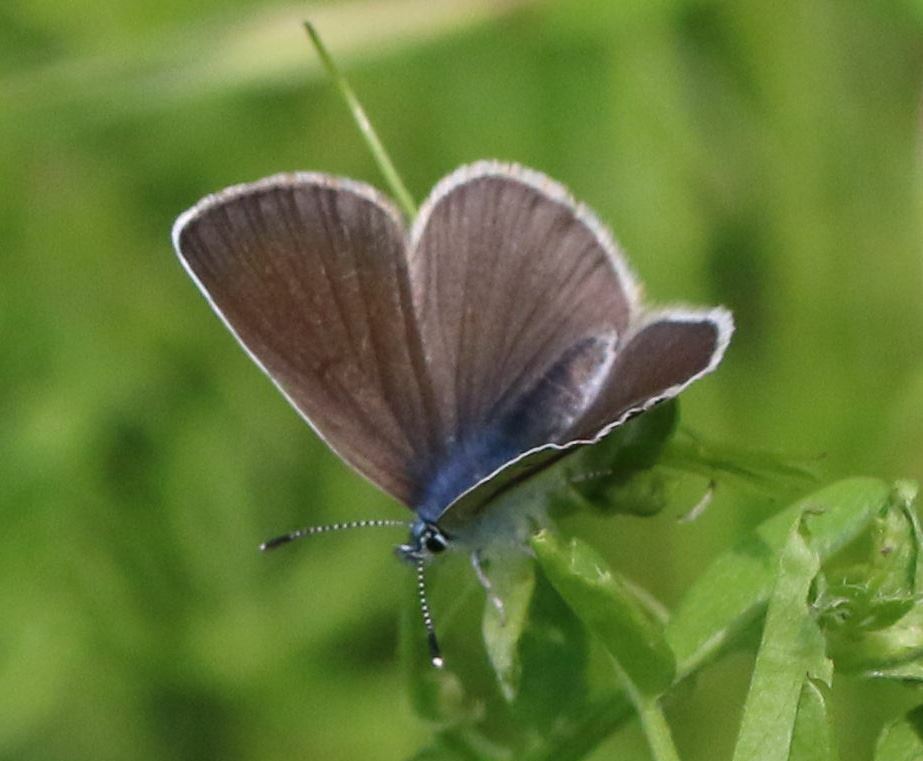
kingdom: Animalia
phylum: Arthropoda
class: Insecta
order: Lepidoptera
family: Lycaenidae
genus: Glaucopsyche
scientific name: Glaucopsyche alexis
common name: Green-underside blue
